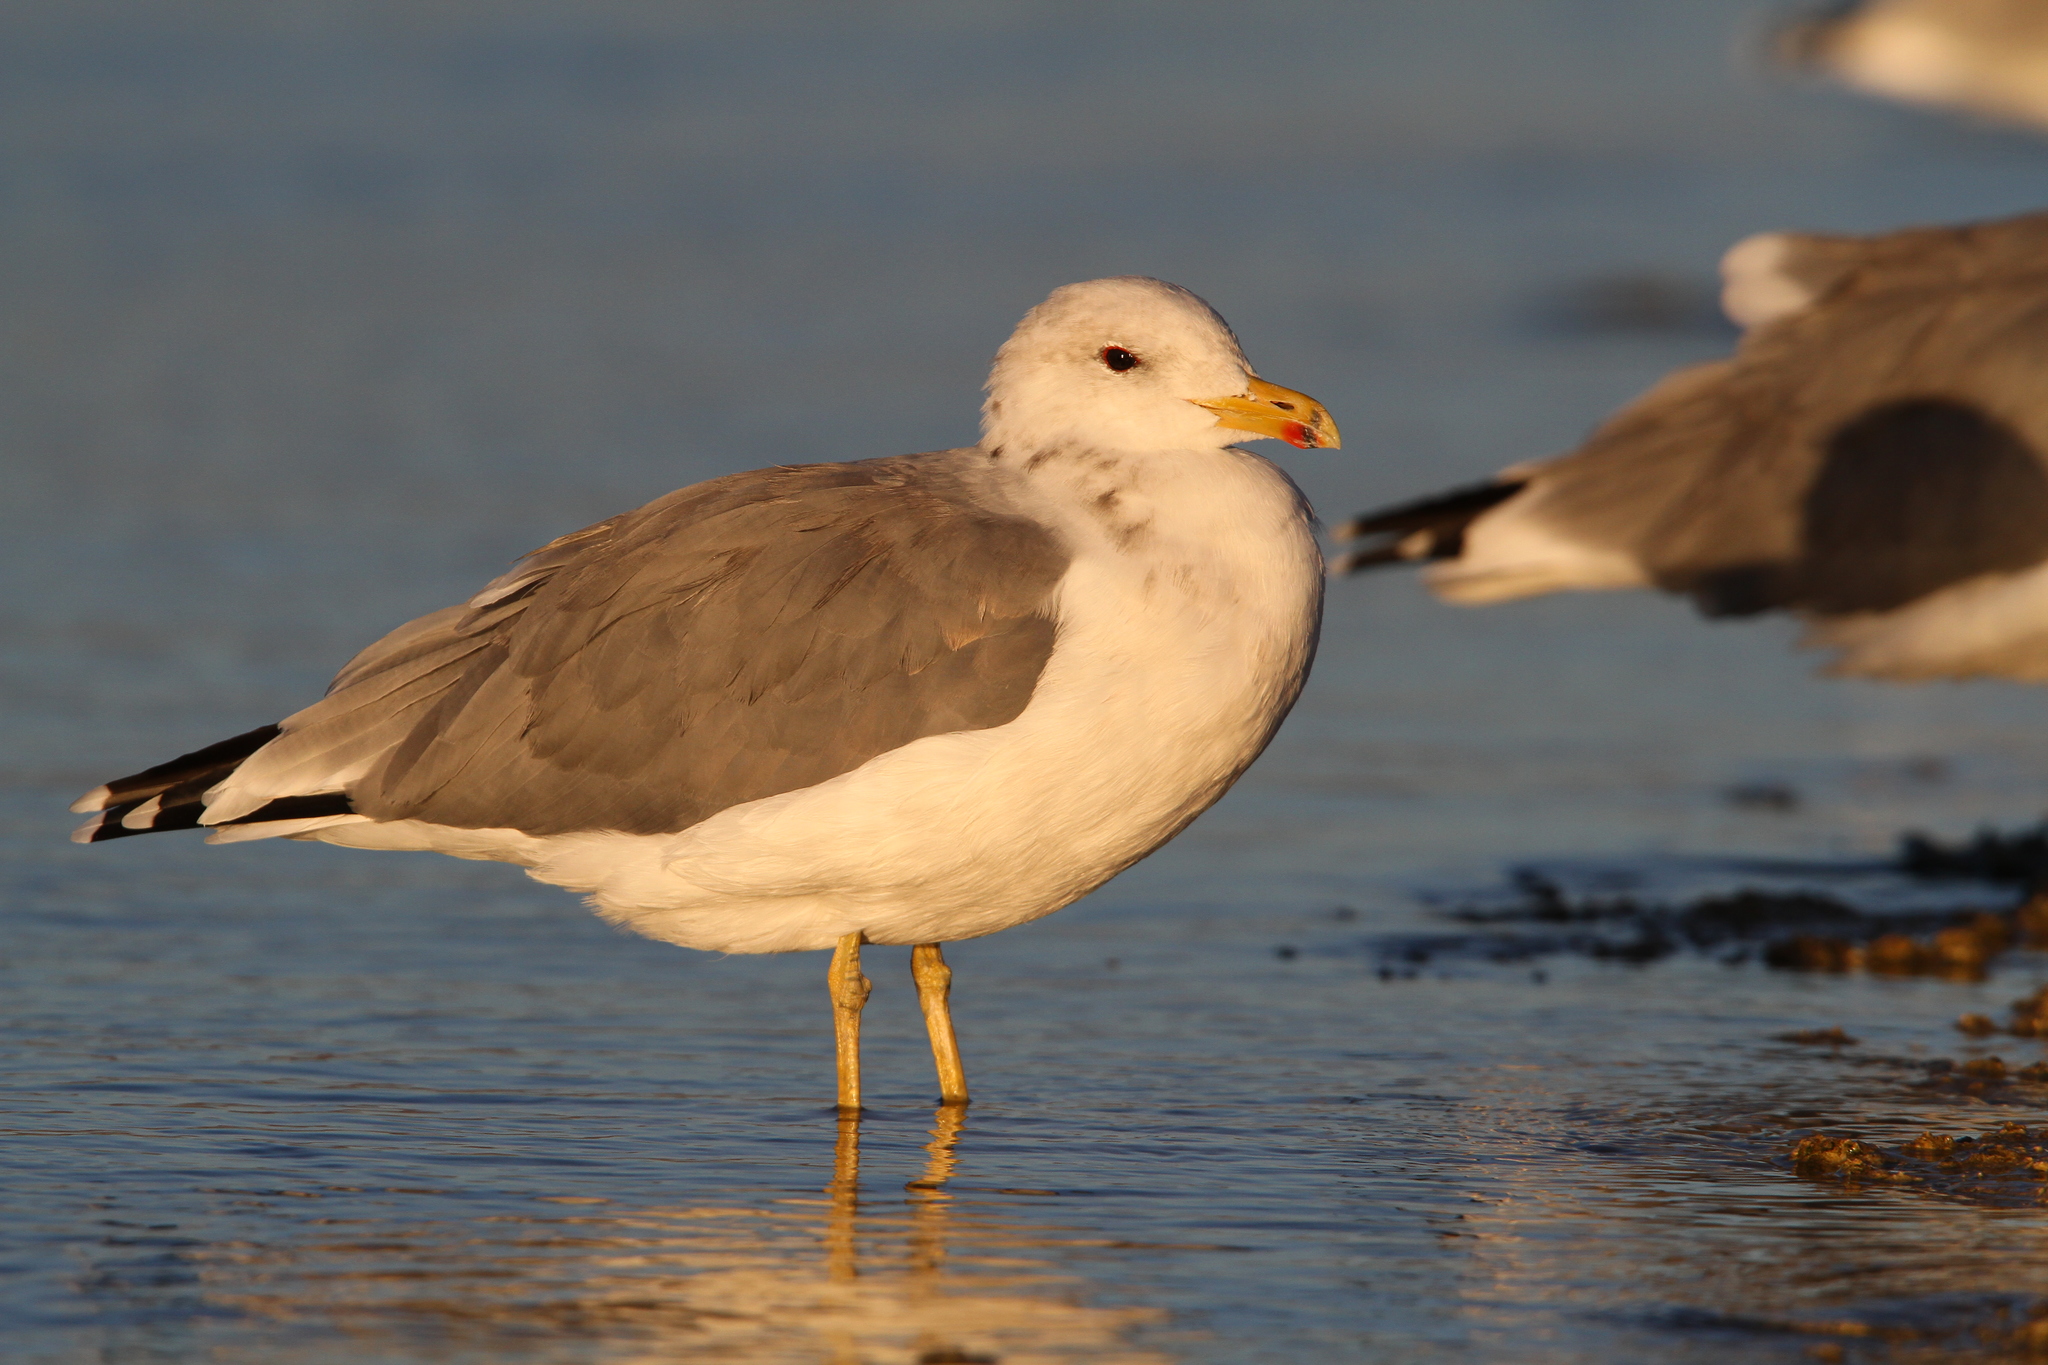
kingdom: Animalia
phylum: Chordata
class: Aves
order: Charadriiformes
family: Laridae
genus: Larus
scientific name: Larus californicus
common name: California gull
